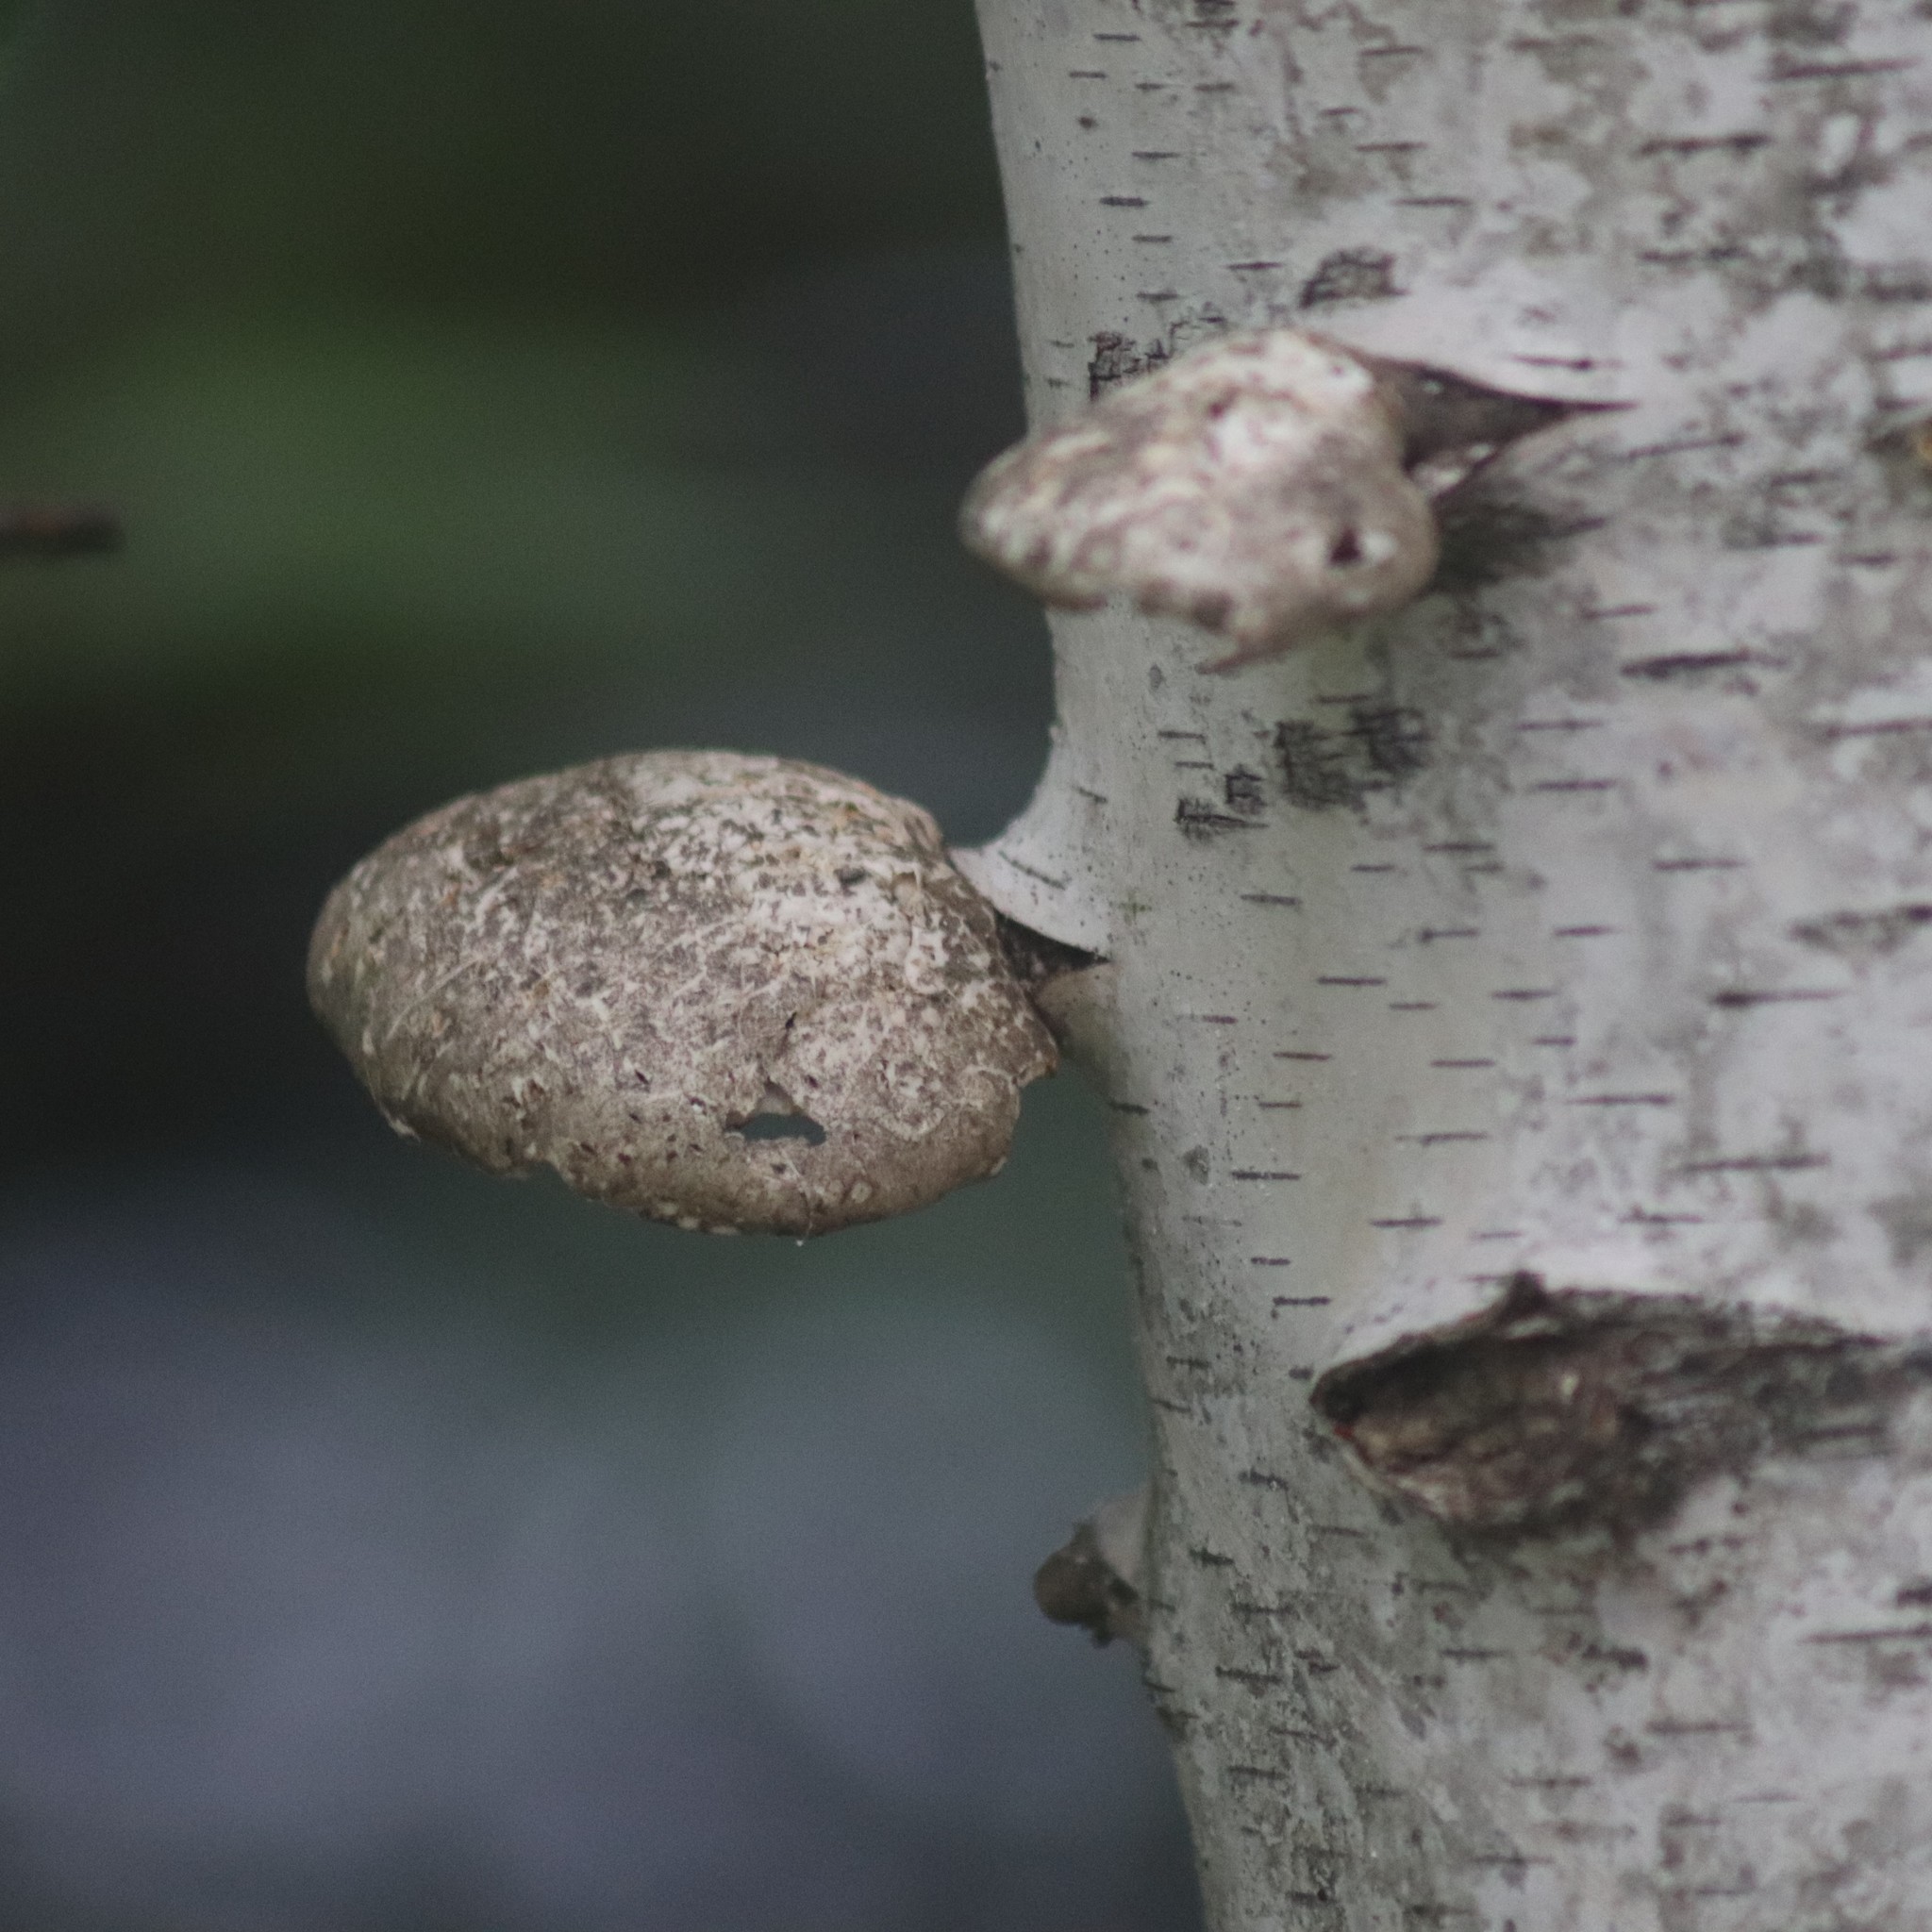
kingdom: Fungi
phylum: Basidiomycota
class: Agaricomycetes
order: Polyporales
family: Fomitopsidaceae
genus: Fomitopsis
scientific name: Fomitopsis betulina
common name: Birch polypore
